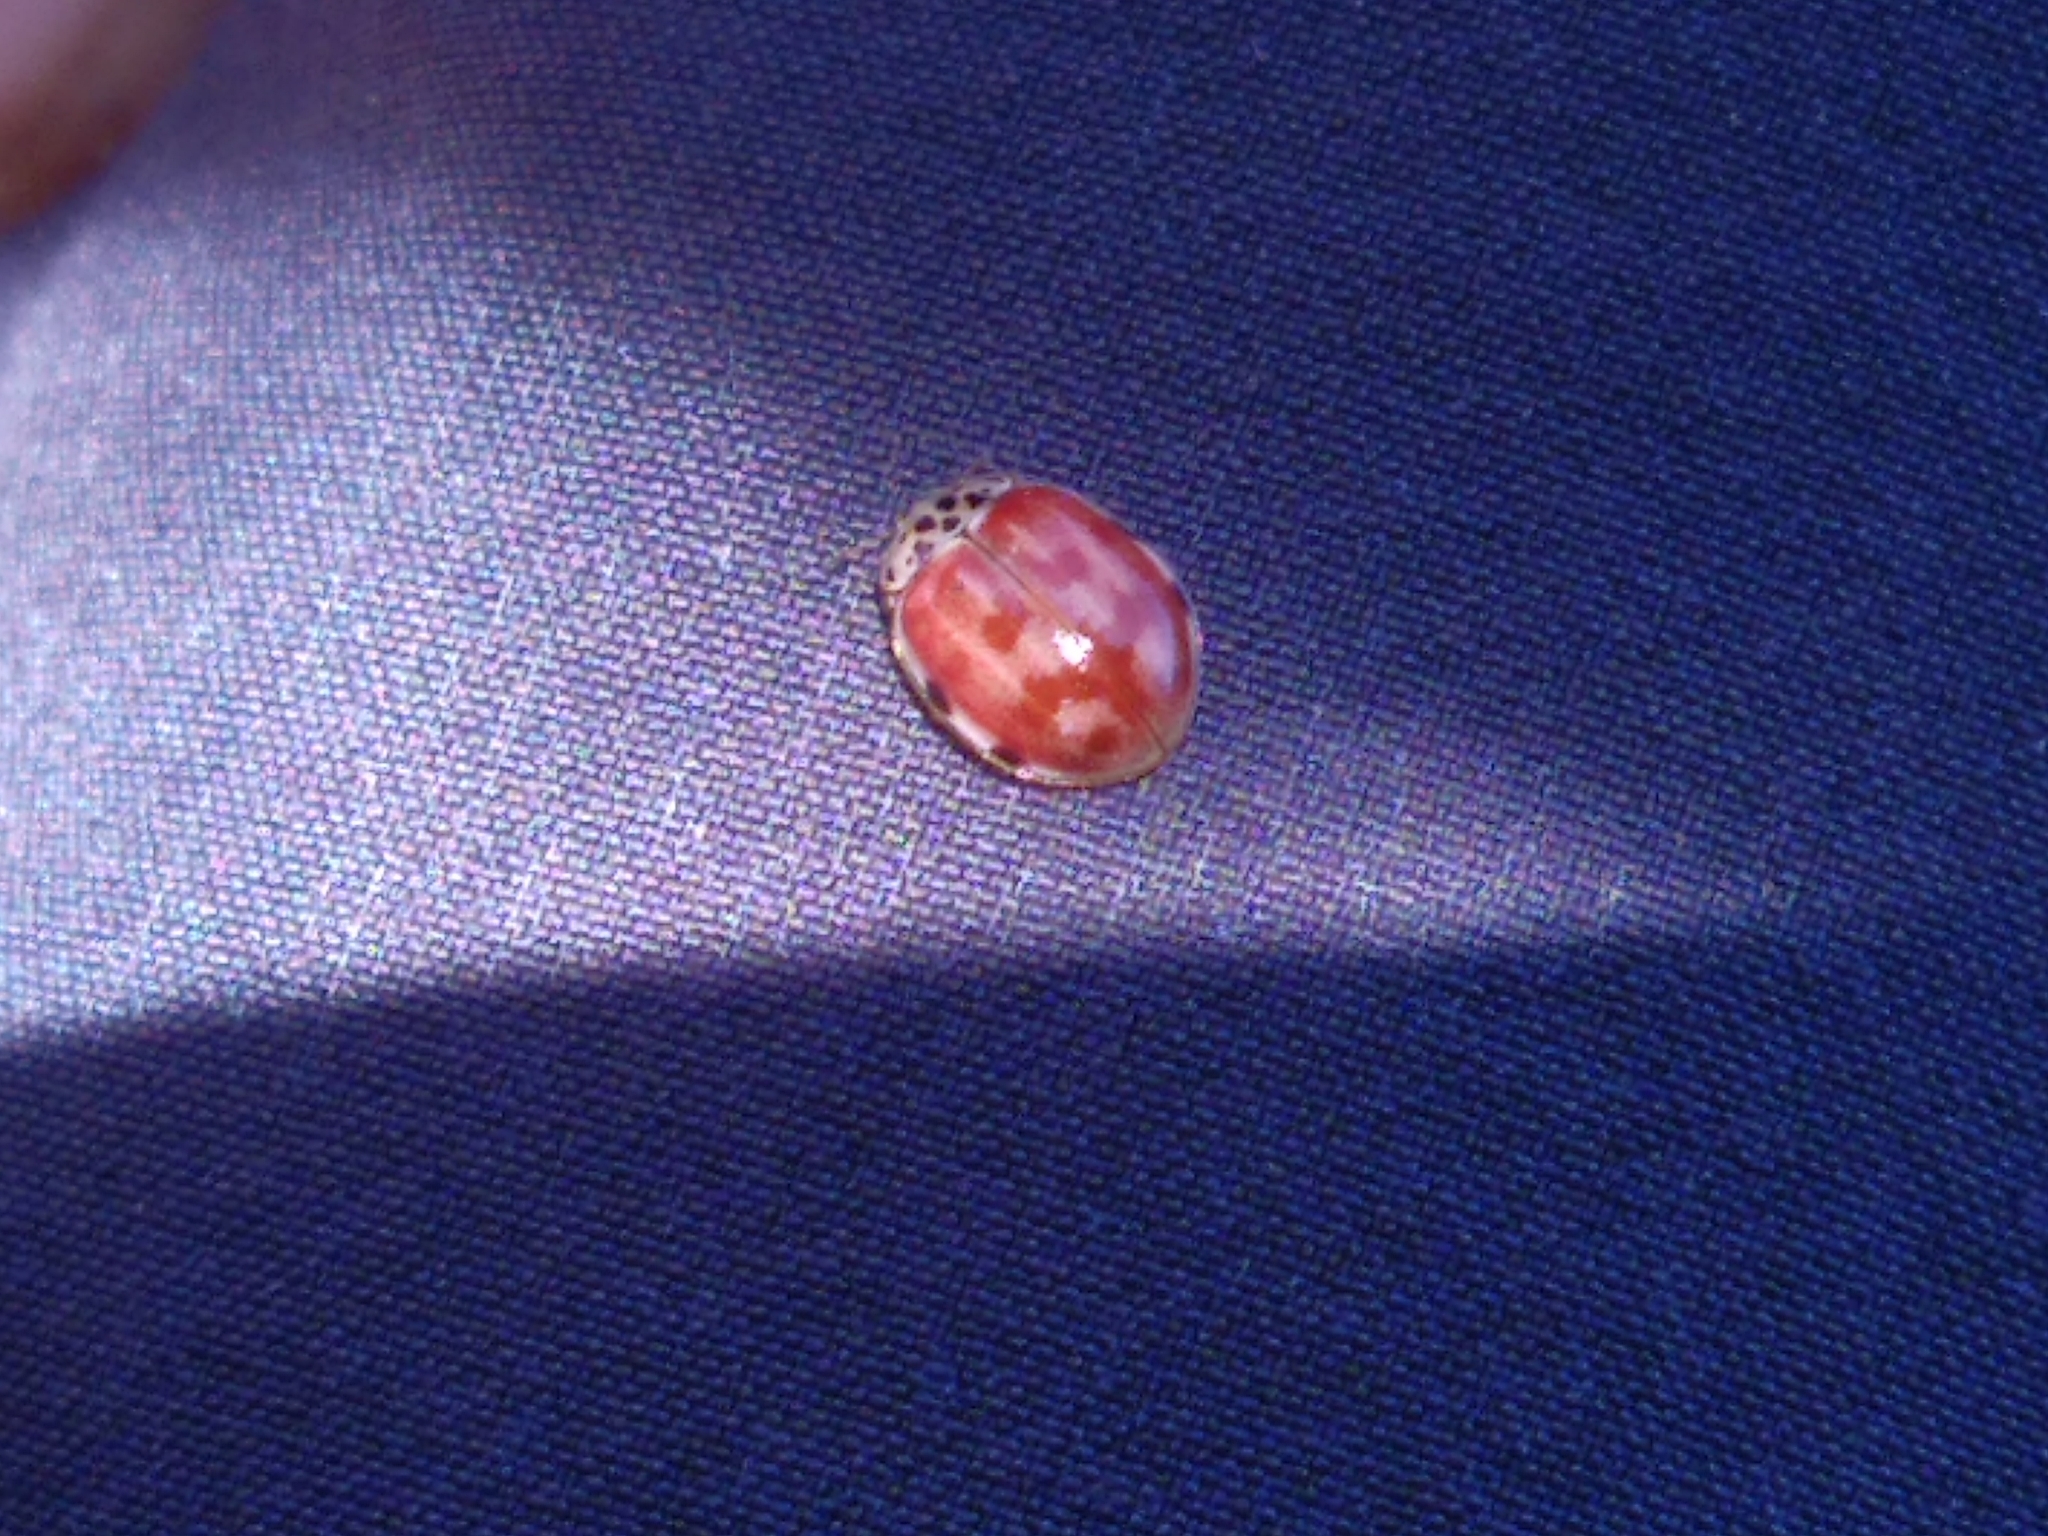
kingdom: Animalia
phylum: Arthropoda
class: Insecta
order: Coleoptera
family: Coccinellidae
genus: Harmonia
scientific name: Harmonia quadripunctata
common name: Cream-streaked ladybird
